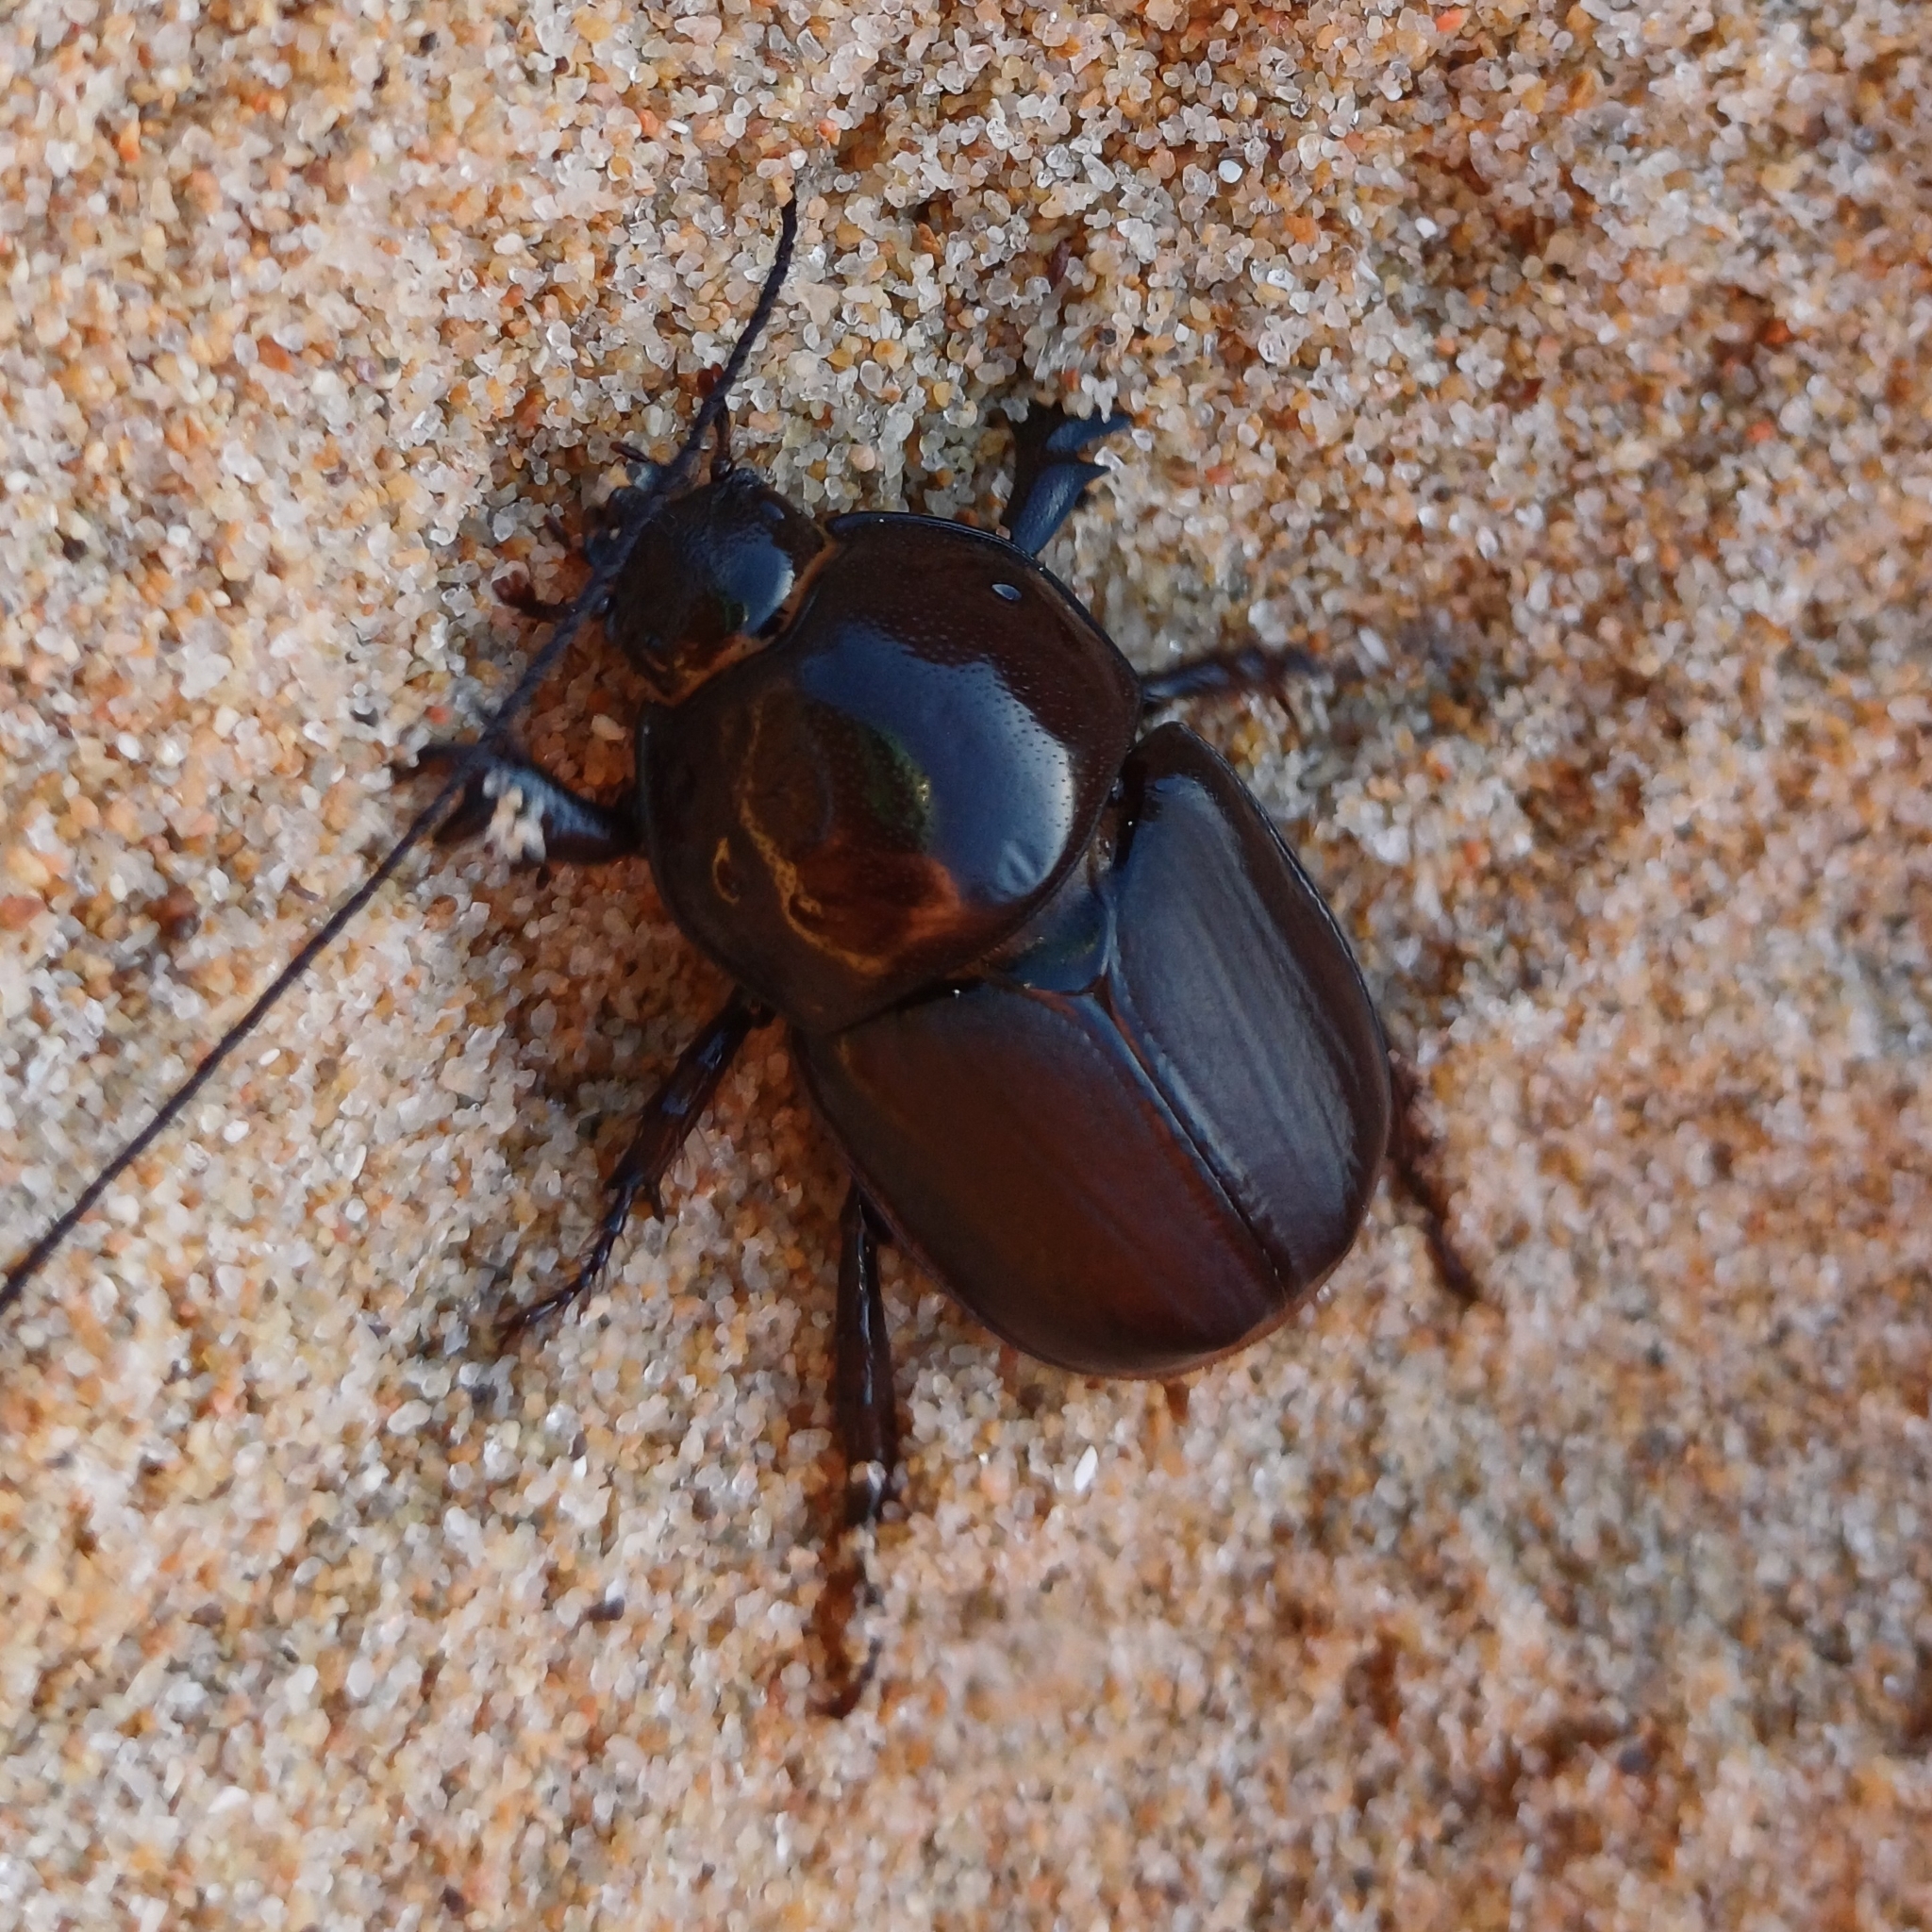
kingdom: Animalia
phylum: Arthropoda
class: Insecta
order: Coleoptera
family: Scarabaeidae
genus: Diloboderus
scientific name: Diloboderus abderus
